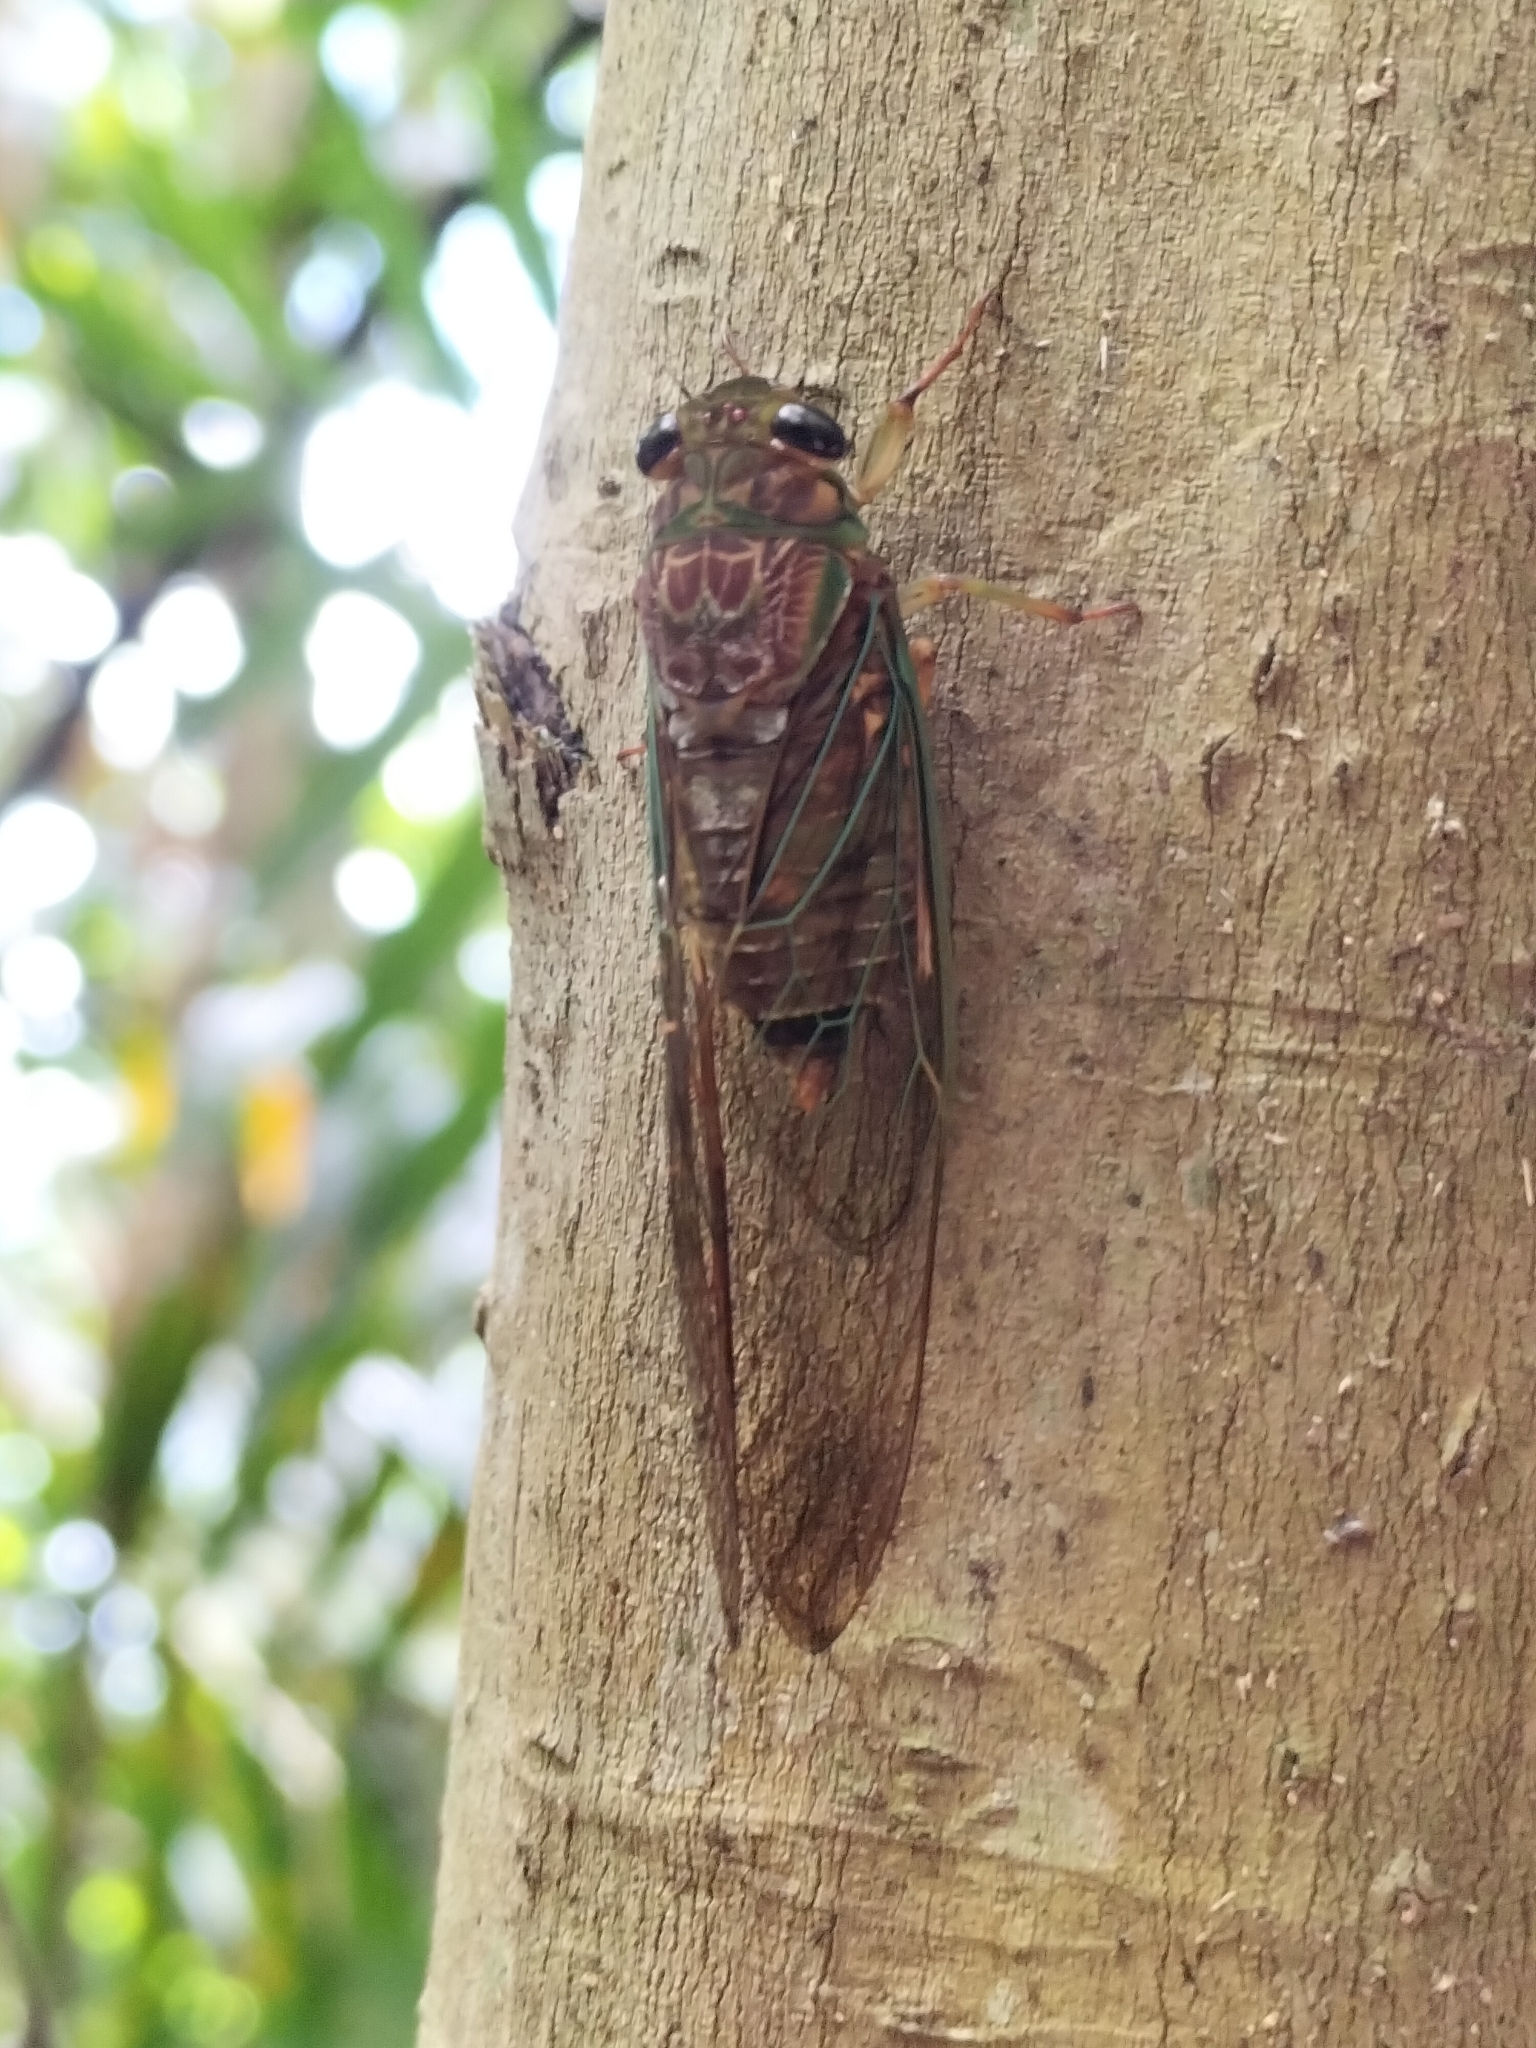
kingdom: Animalia
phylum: Arthropoda
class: Insecta
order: Hemiptera
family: Cicadidae
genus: Venustria
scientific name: Venustria superba
